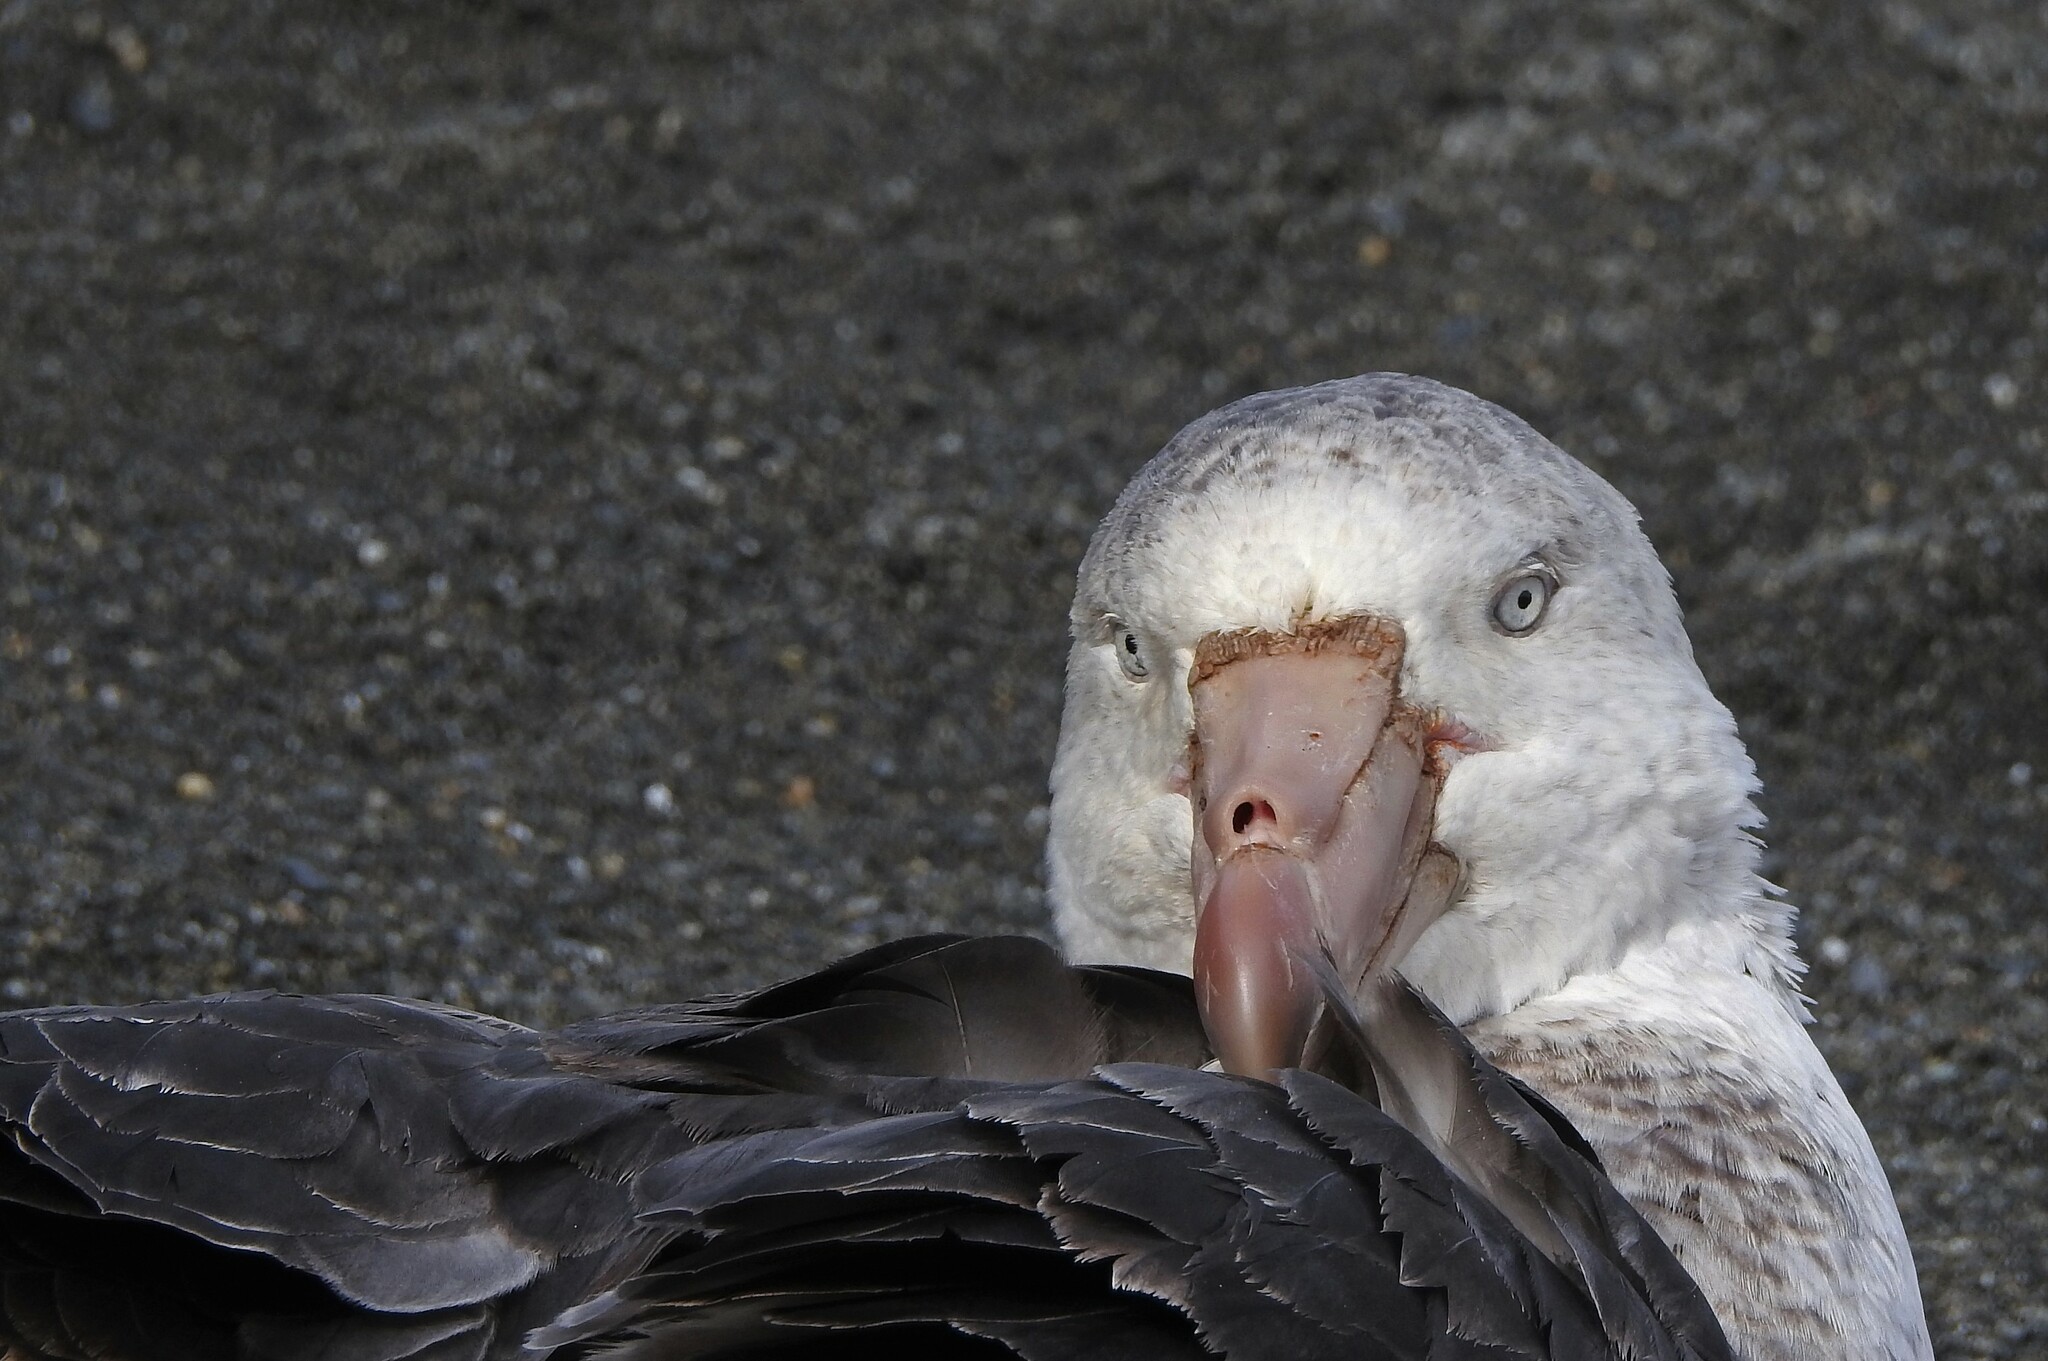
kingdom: Animalia
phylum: Chordata
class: Aves
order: Procellariiformes
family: Procellariidae
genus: Macronectes
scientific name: Macronectes halli
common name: Northern giant petrel
